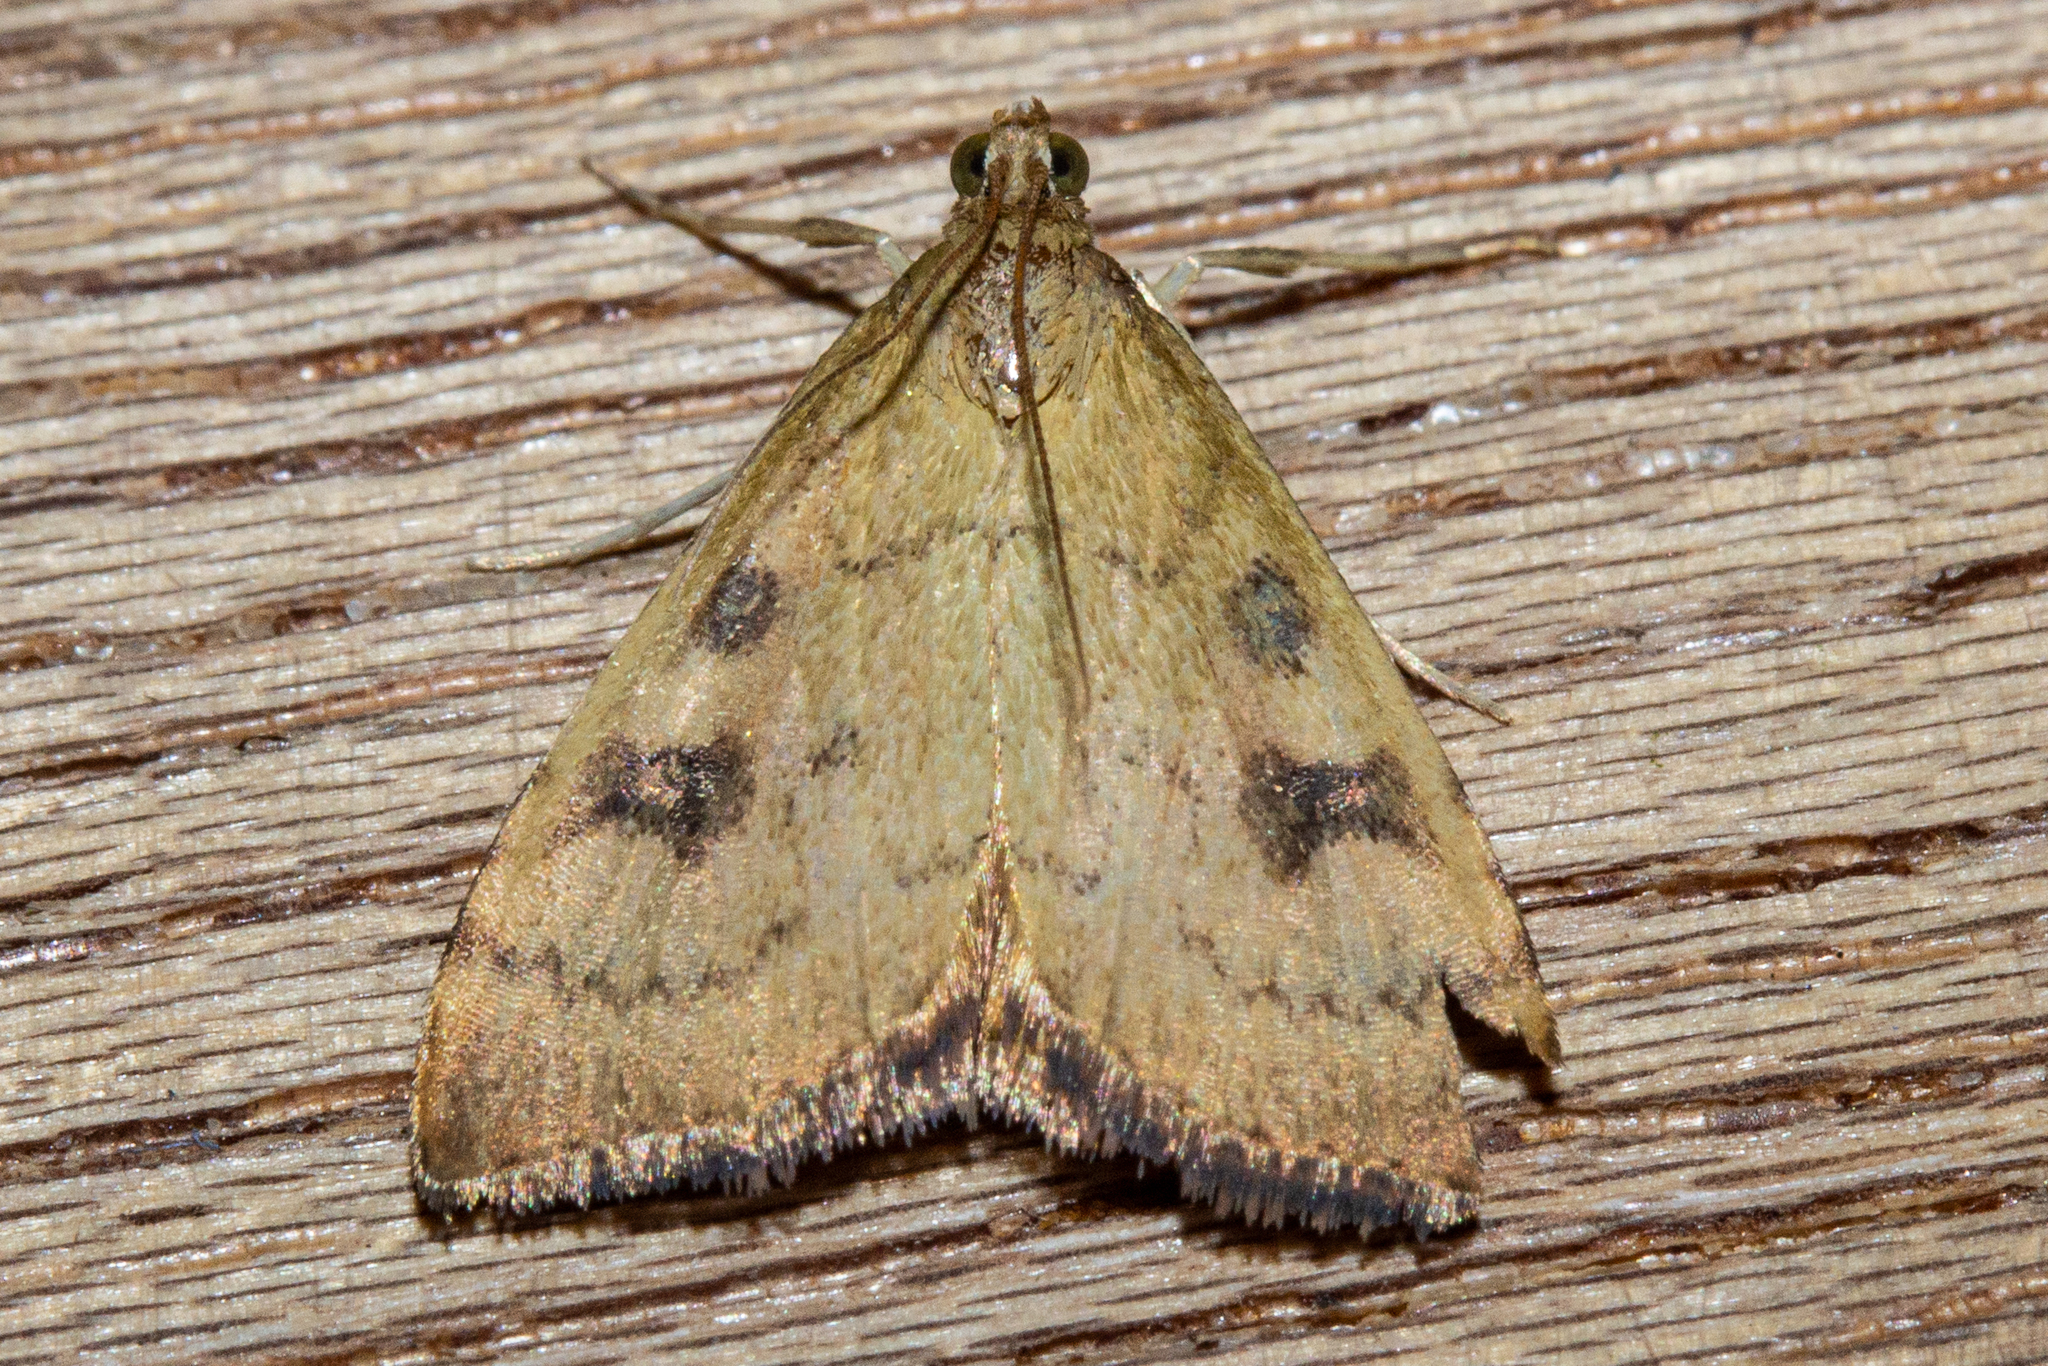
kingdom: Animalia
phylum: Arthropoda
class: Insecta
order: Lepidoptera
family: Crambidae
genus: Udea
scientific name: Udea Mnesictena flavidalis
